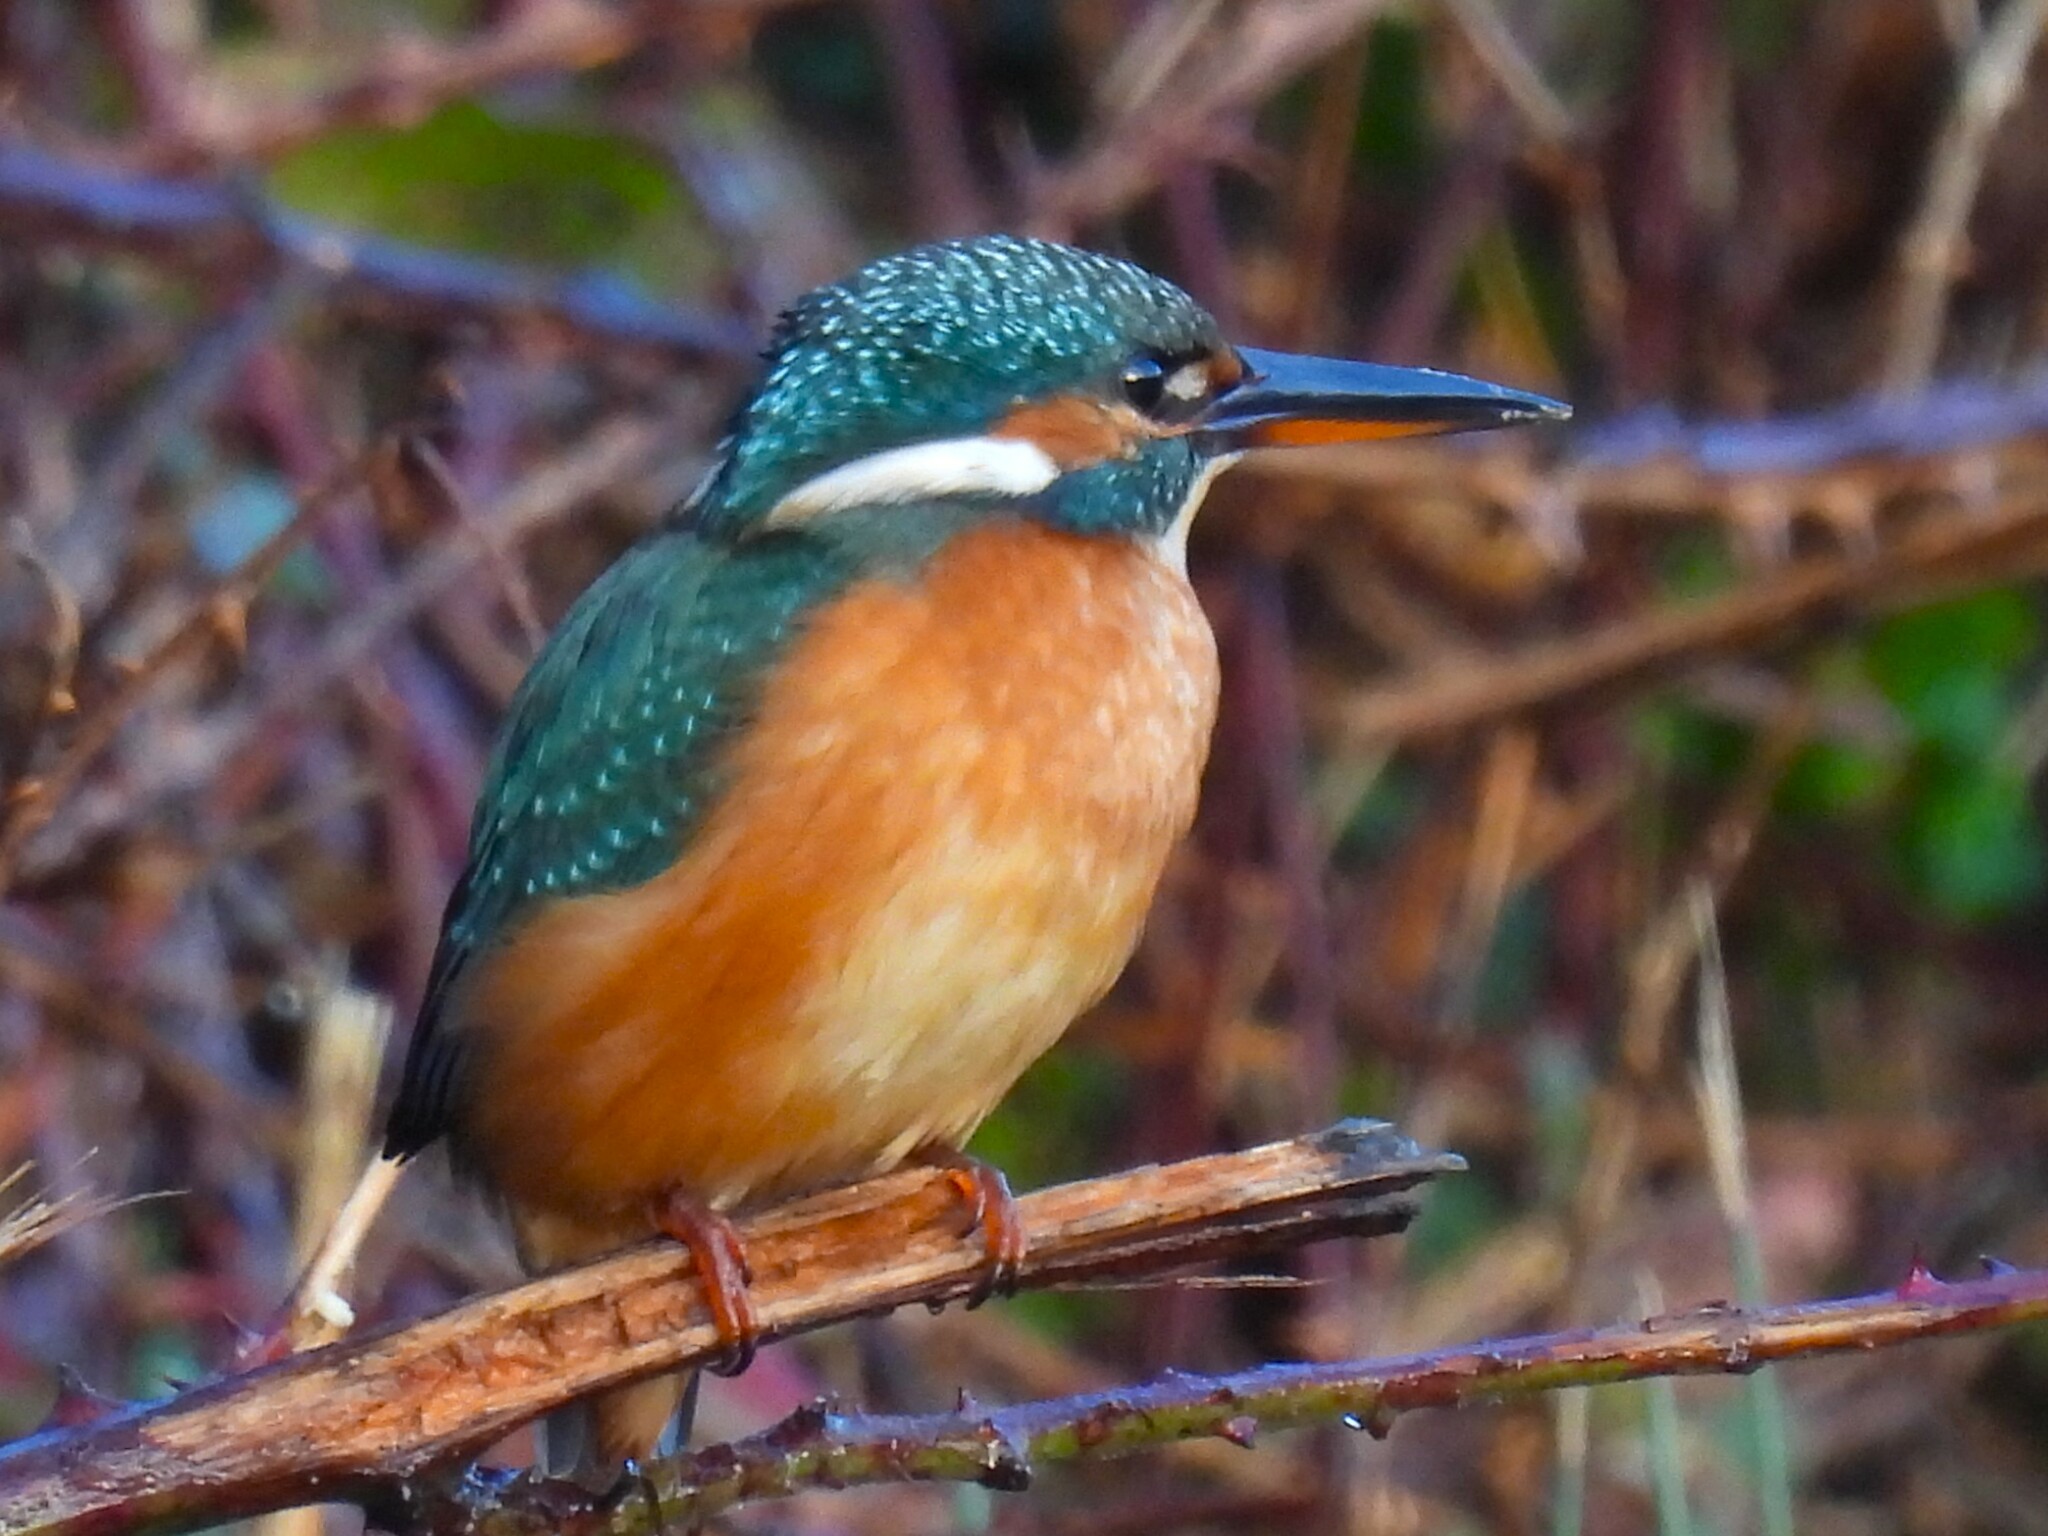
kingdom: Animalia
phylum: Chordata
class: Aves
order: Coraciiformes
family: Alcedinidae
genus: Alcedo
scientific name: Alcedo atthis
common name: Common kingfisher
